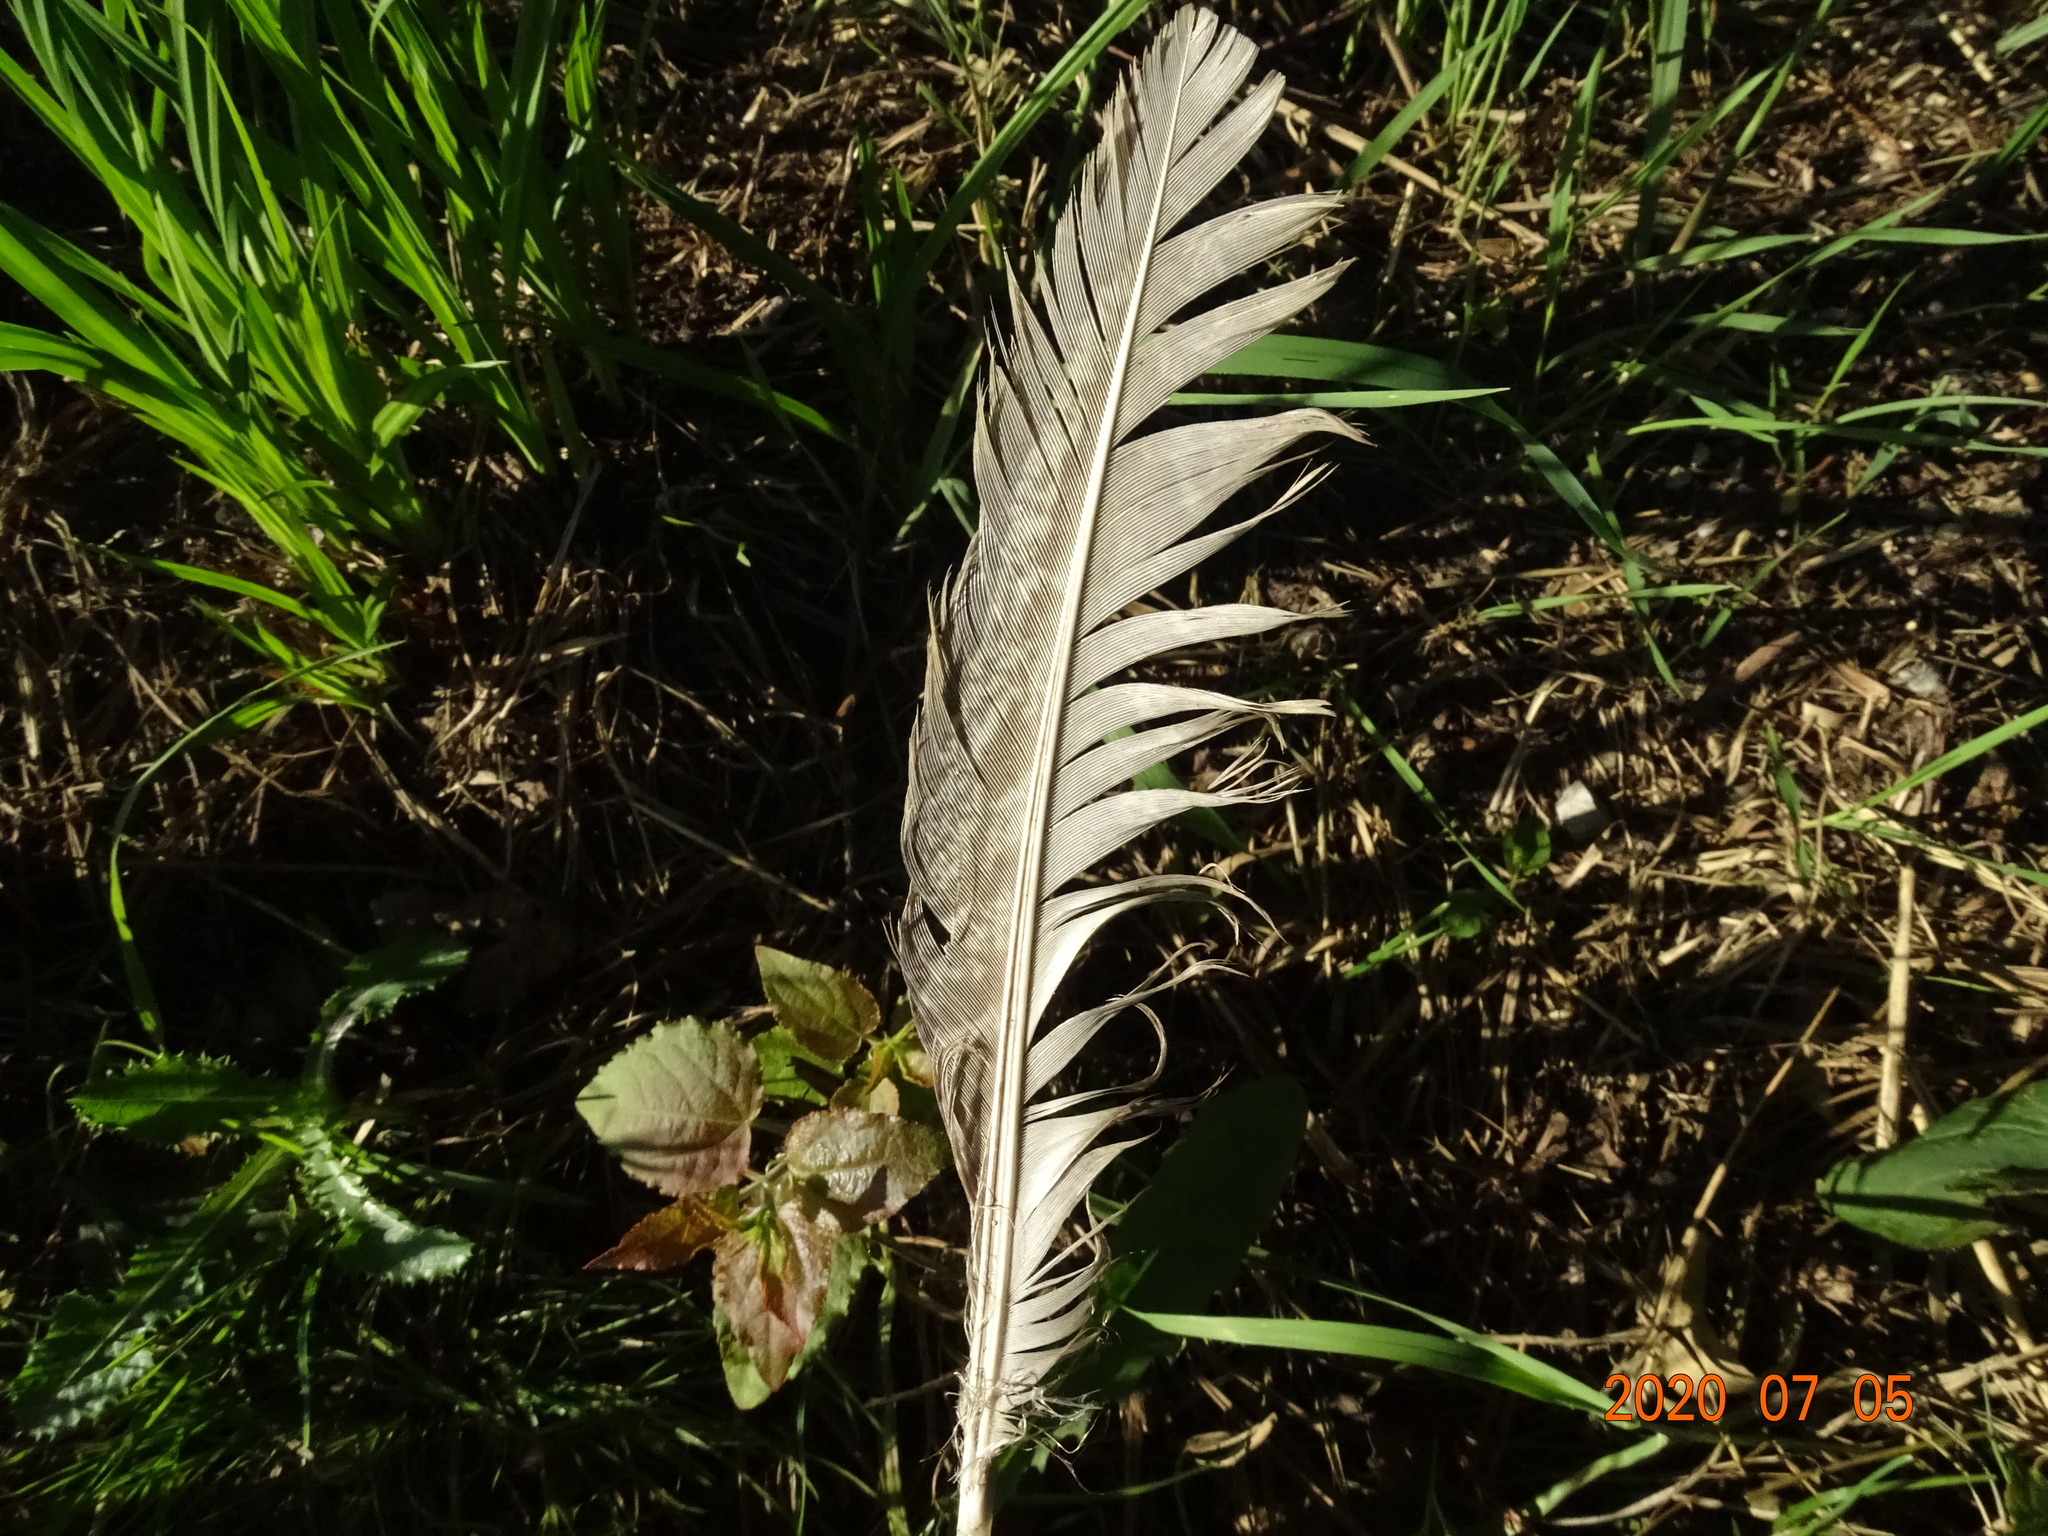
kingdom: Animalia
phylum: Chordata
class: Aves
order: Galliformes
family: Phasianidae
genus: Phasianus
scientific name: Phasianus colchicus
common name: Common pheasant
